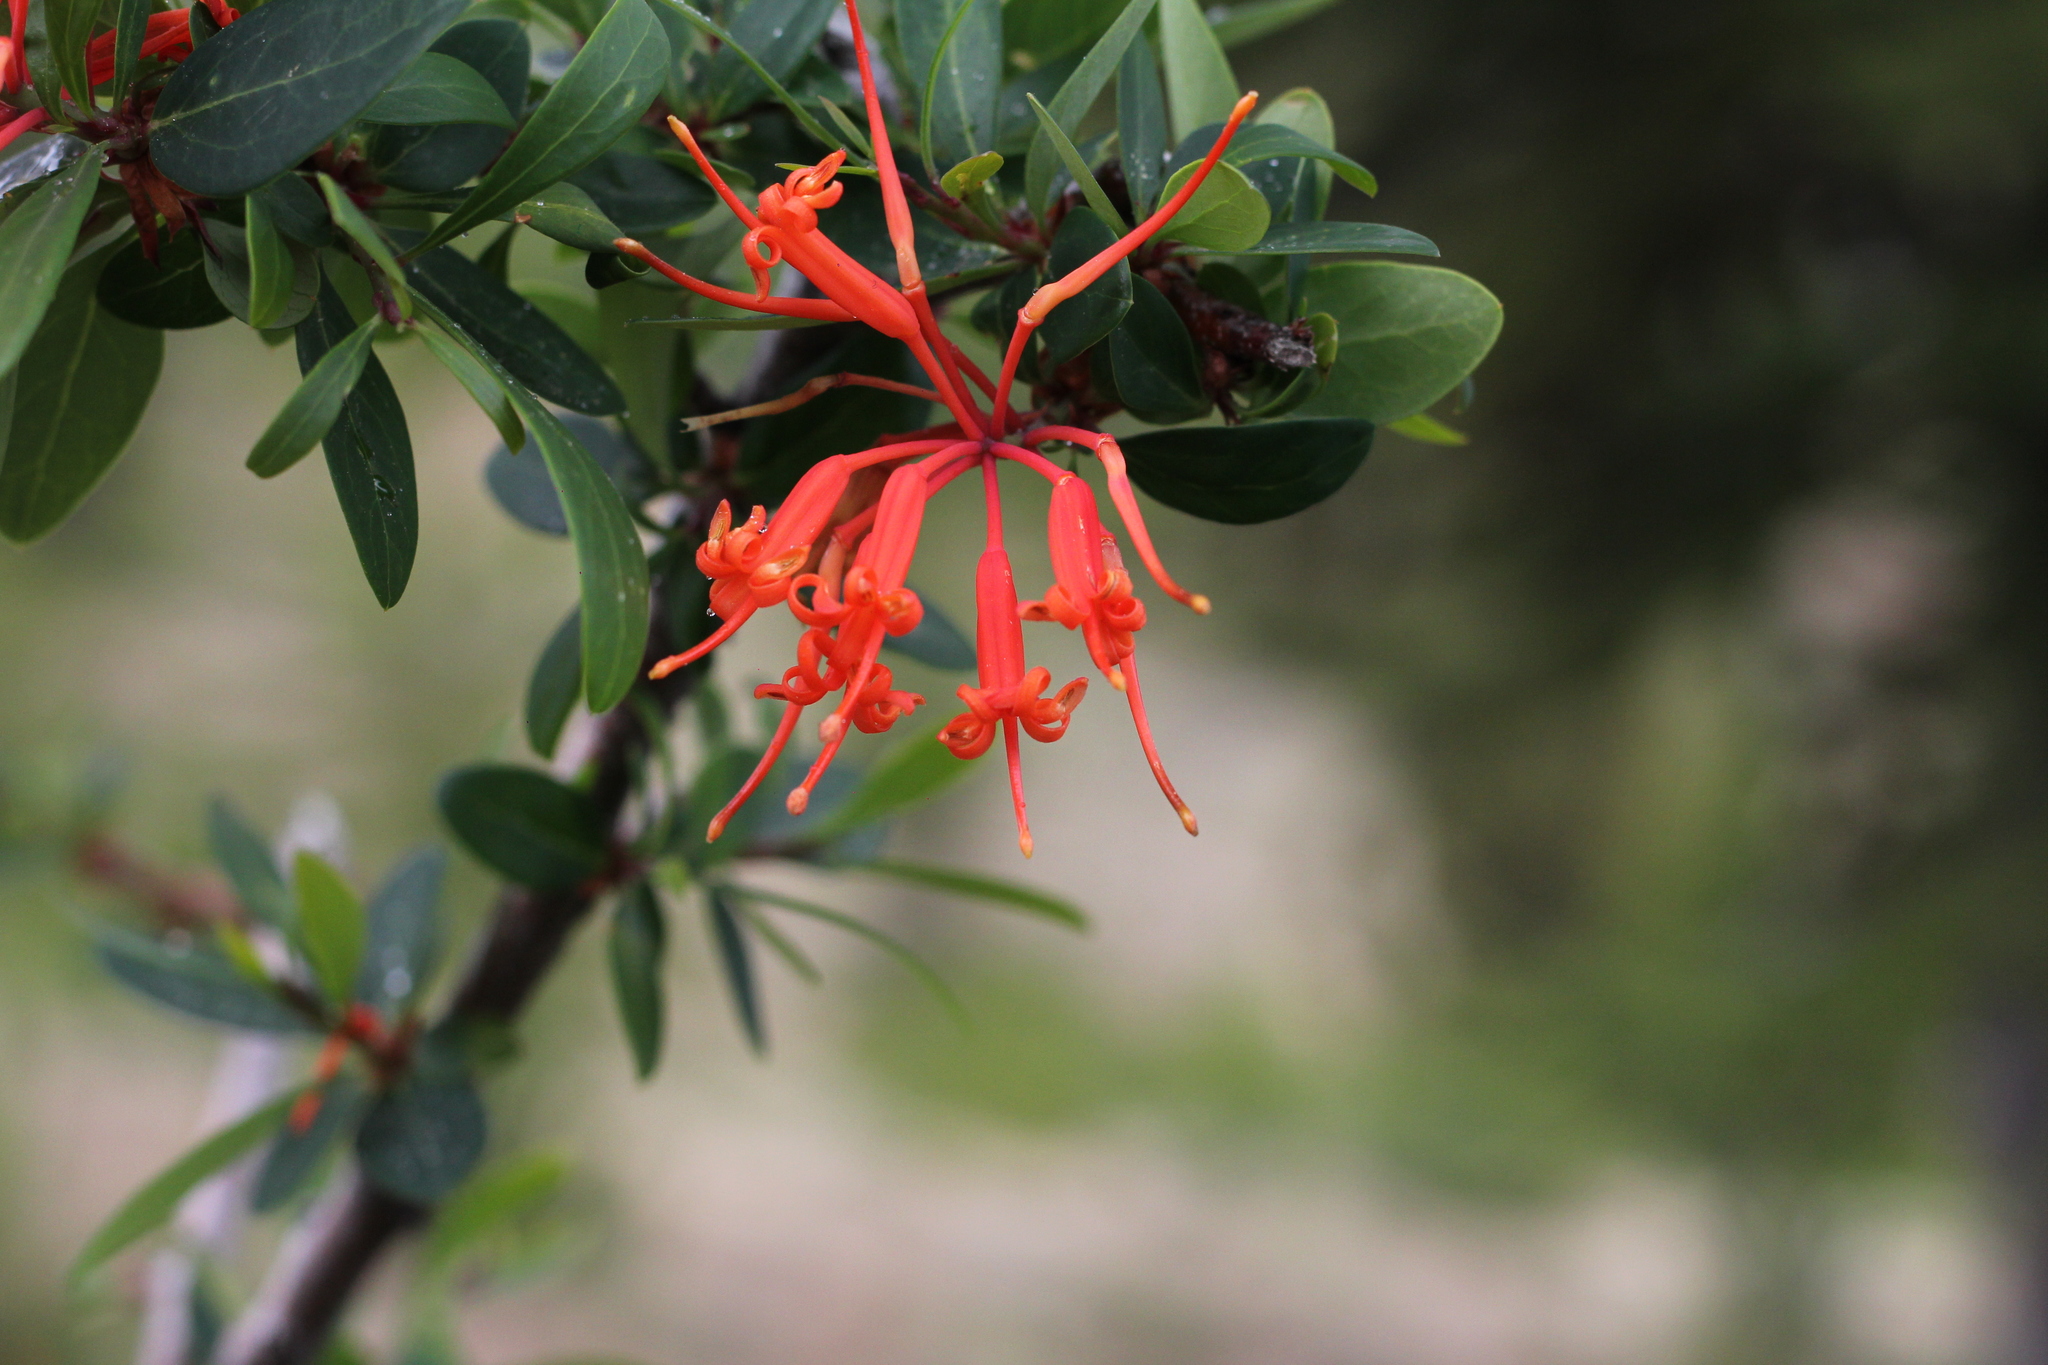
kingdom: Plantae
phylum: Tracheophyta
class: Magnoliopsida
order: Proteales
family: Proteaceae
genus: Embothrium
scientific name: Embothrium coccineum
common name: Chilean firebush
